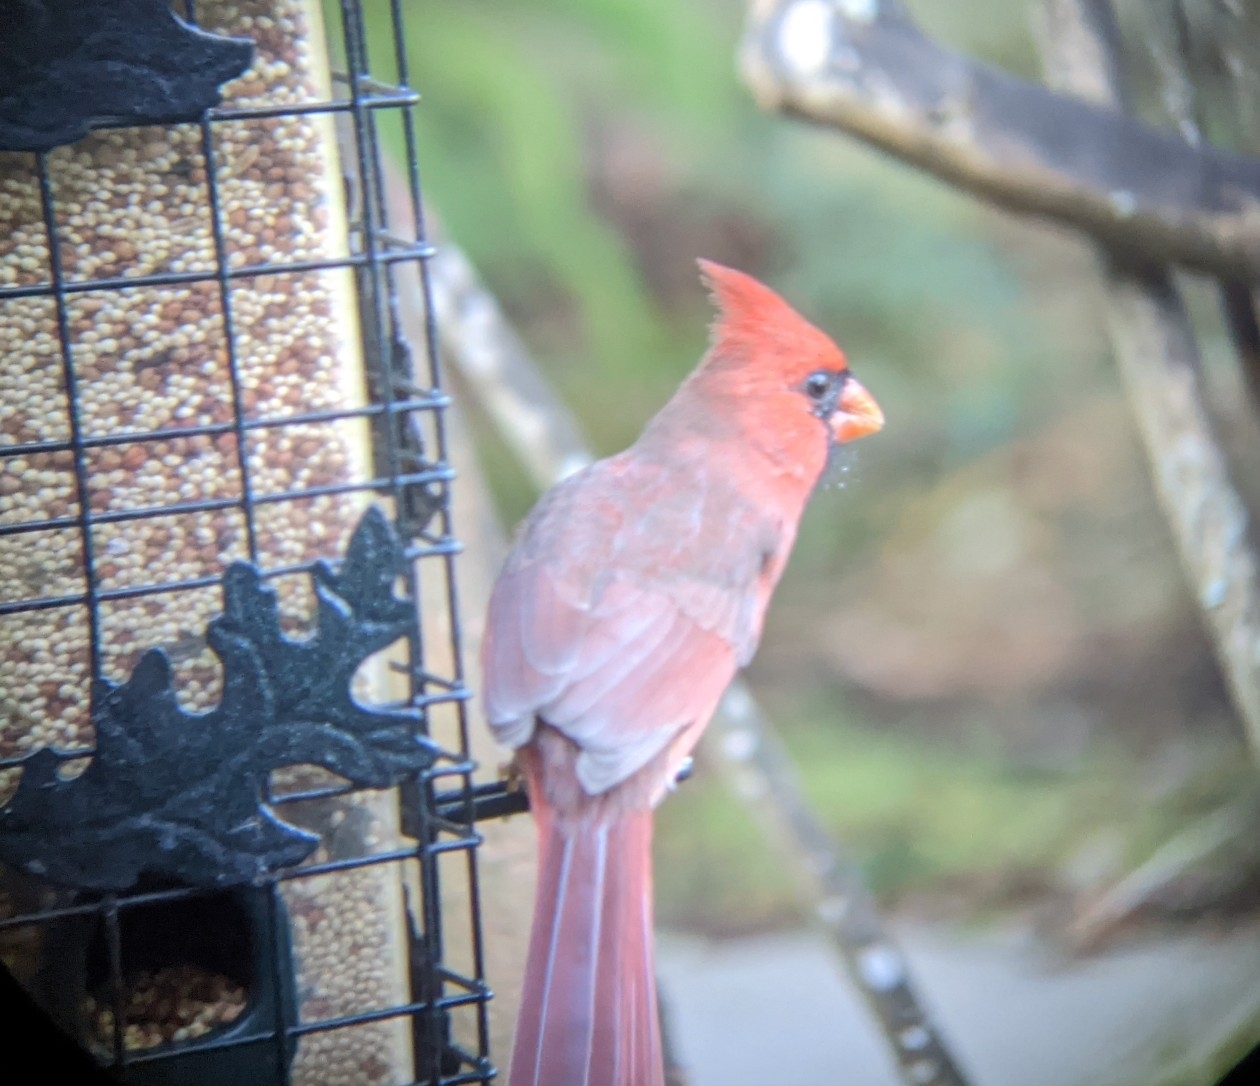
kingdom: Animalia
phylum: Chordata
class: Aves
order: Passeriformes
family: Cardinalidae
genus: Cardinalis
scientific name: Cardinalis cardinalis
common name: Northern cardinal
